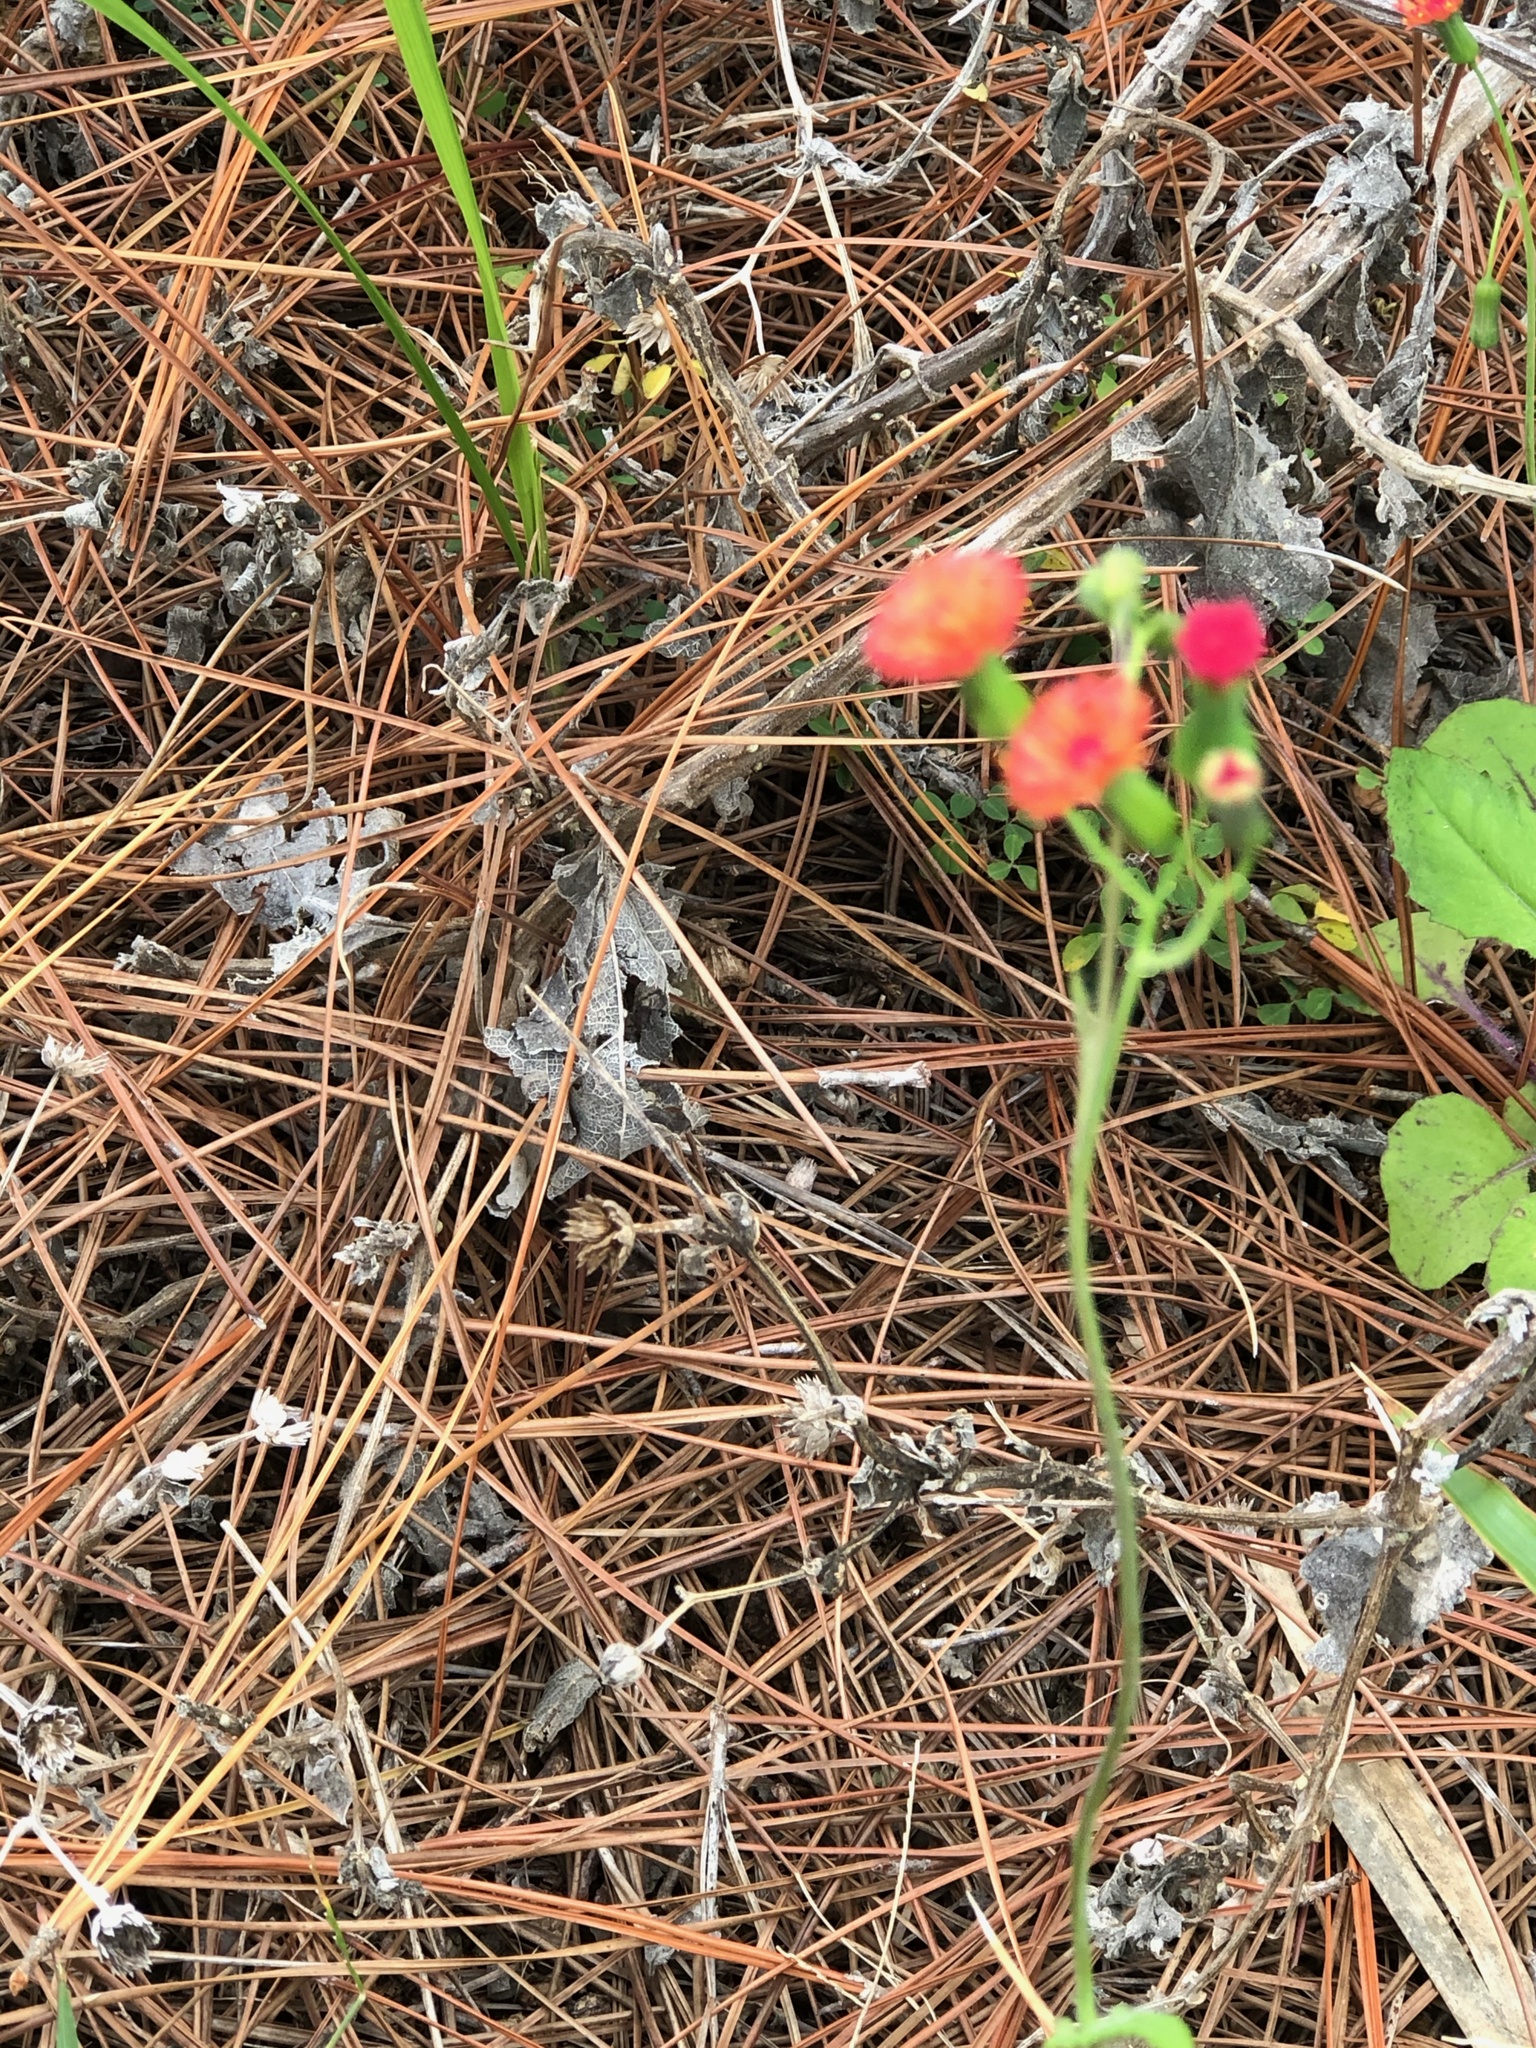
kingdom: Plantae
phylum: Tracheophyta
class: Magnoliopsida
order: Asterales
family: Asteraceae
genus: Emilia
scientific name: Emilia fosbergii
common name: Florida tasselflower
